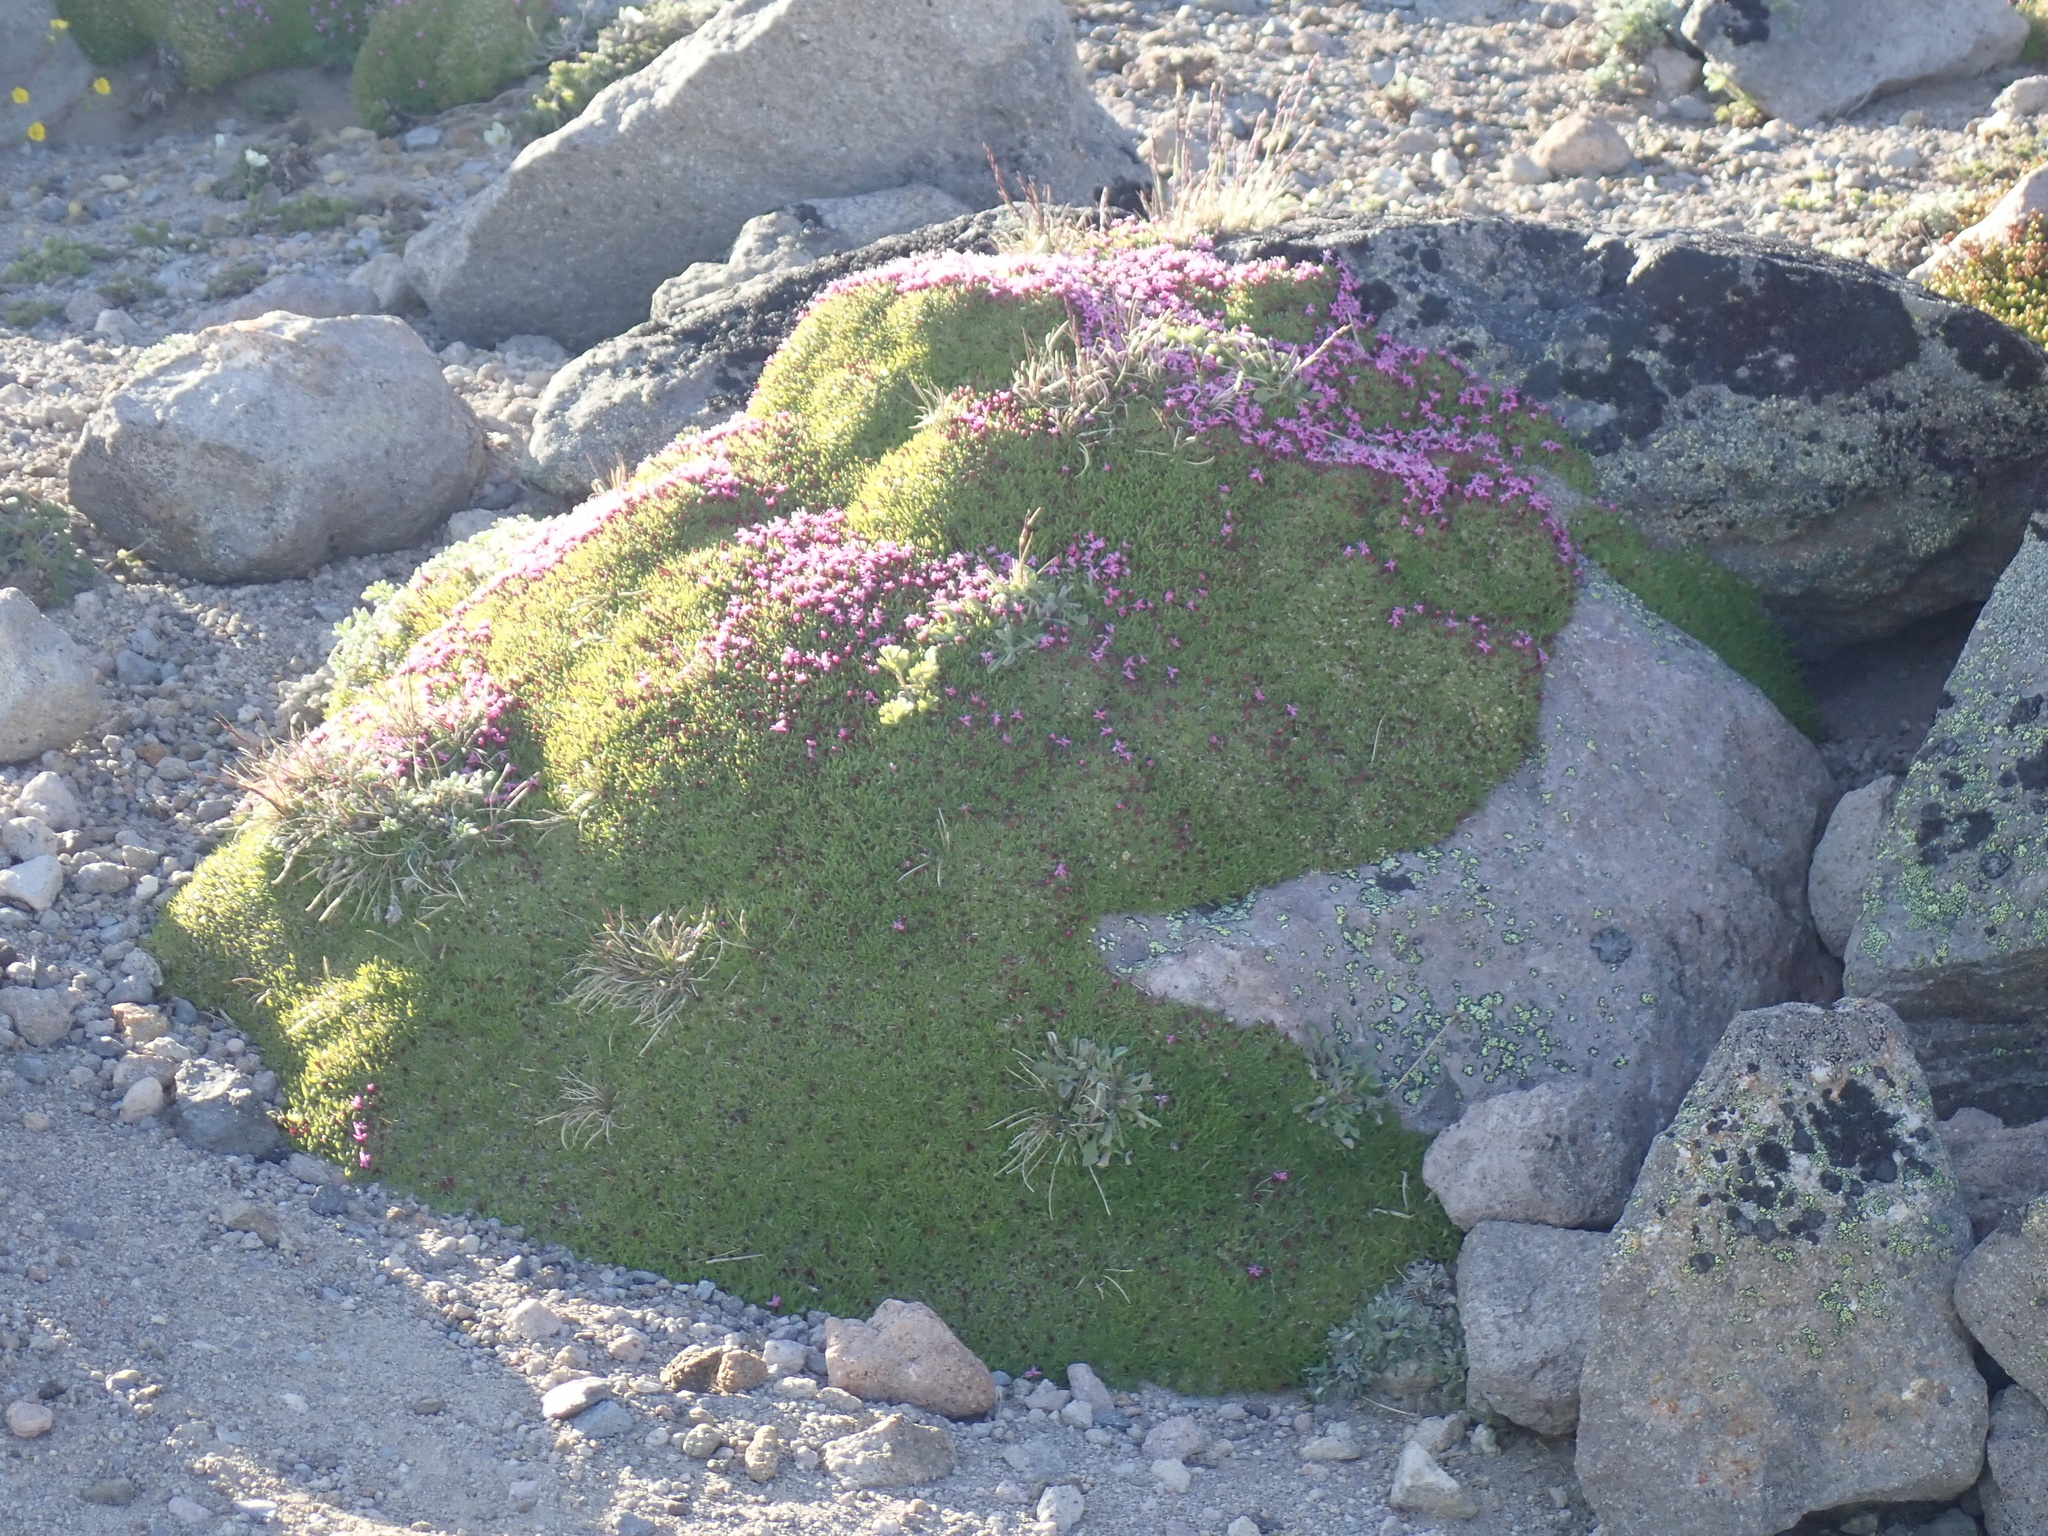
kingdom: Plantae
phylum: Tracheophyta
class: Magnoliopsida
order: Caryophyllales
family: Caryophyllaceae
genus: Silene
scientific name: Silene acaulis
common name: Moss campion
